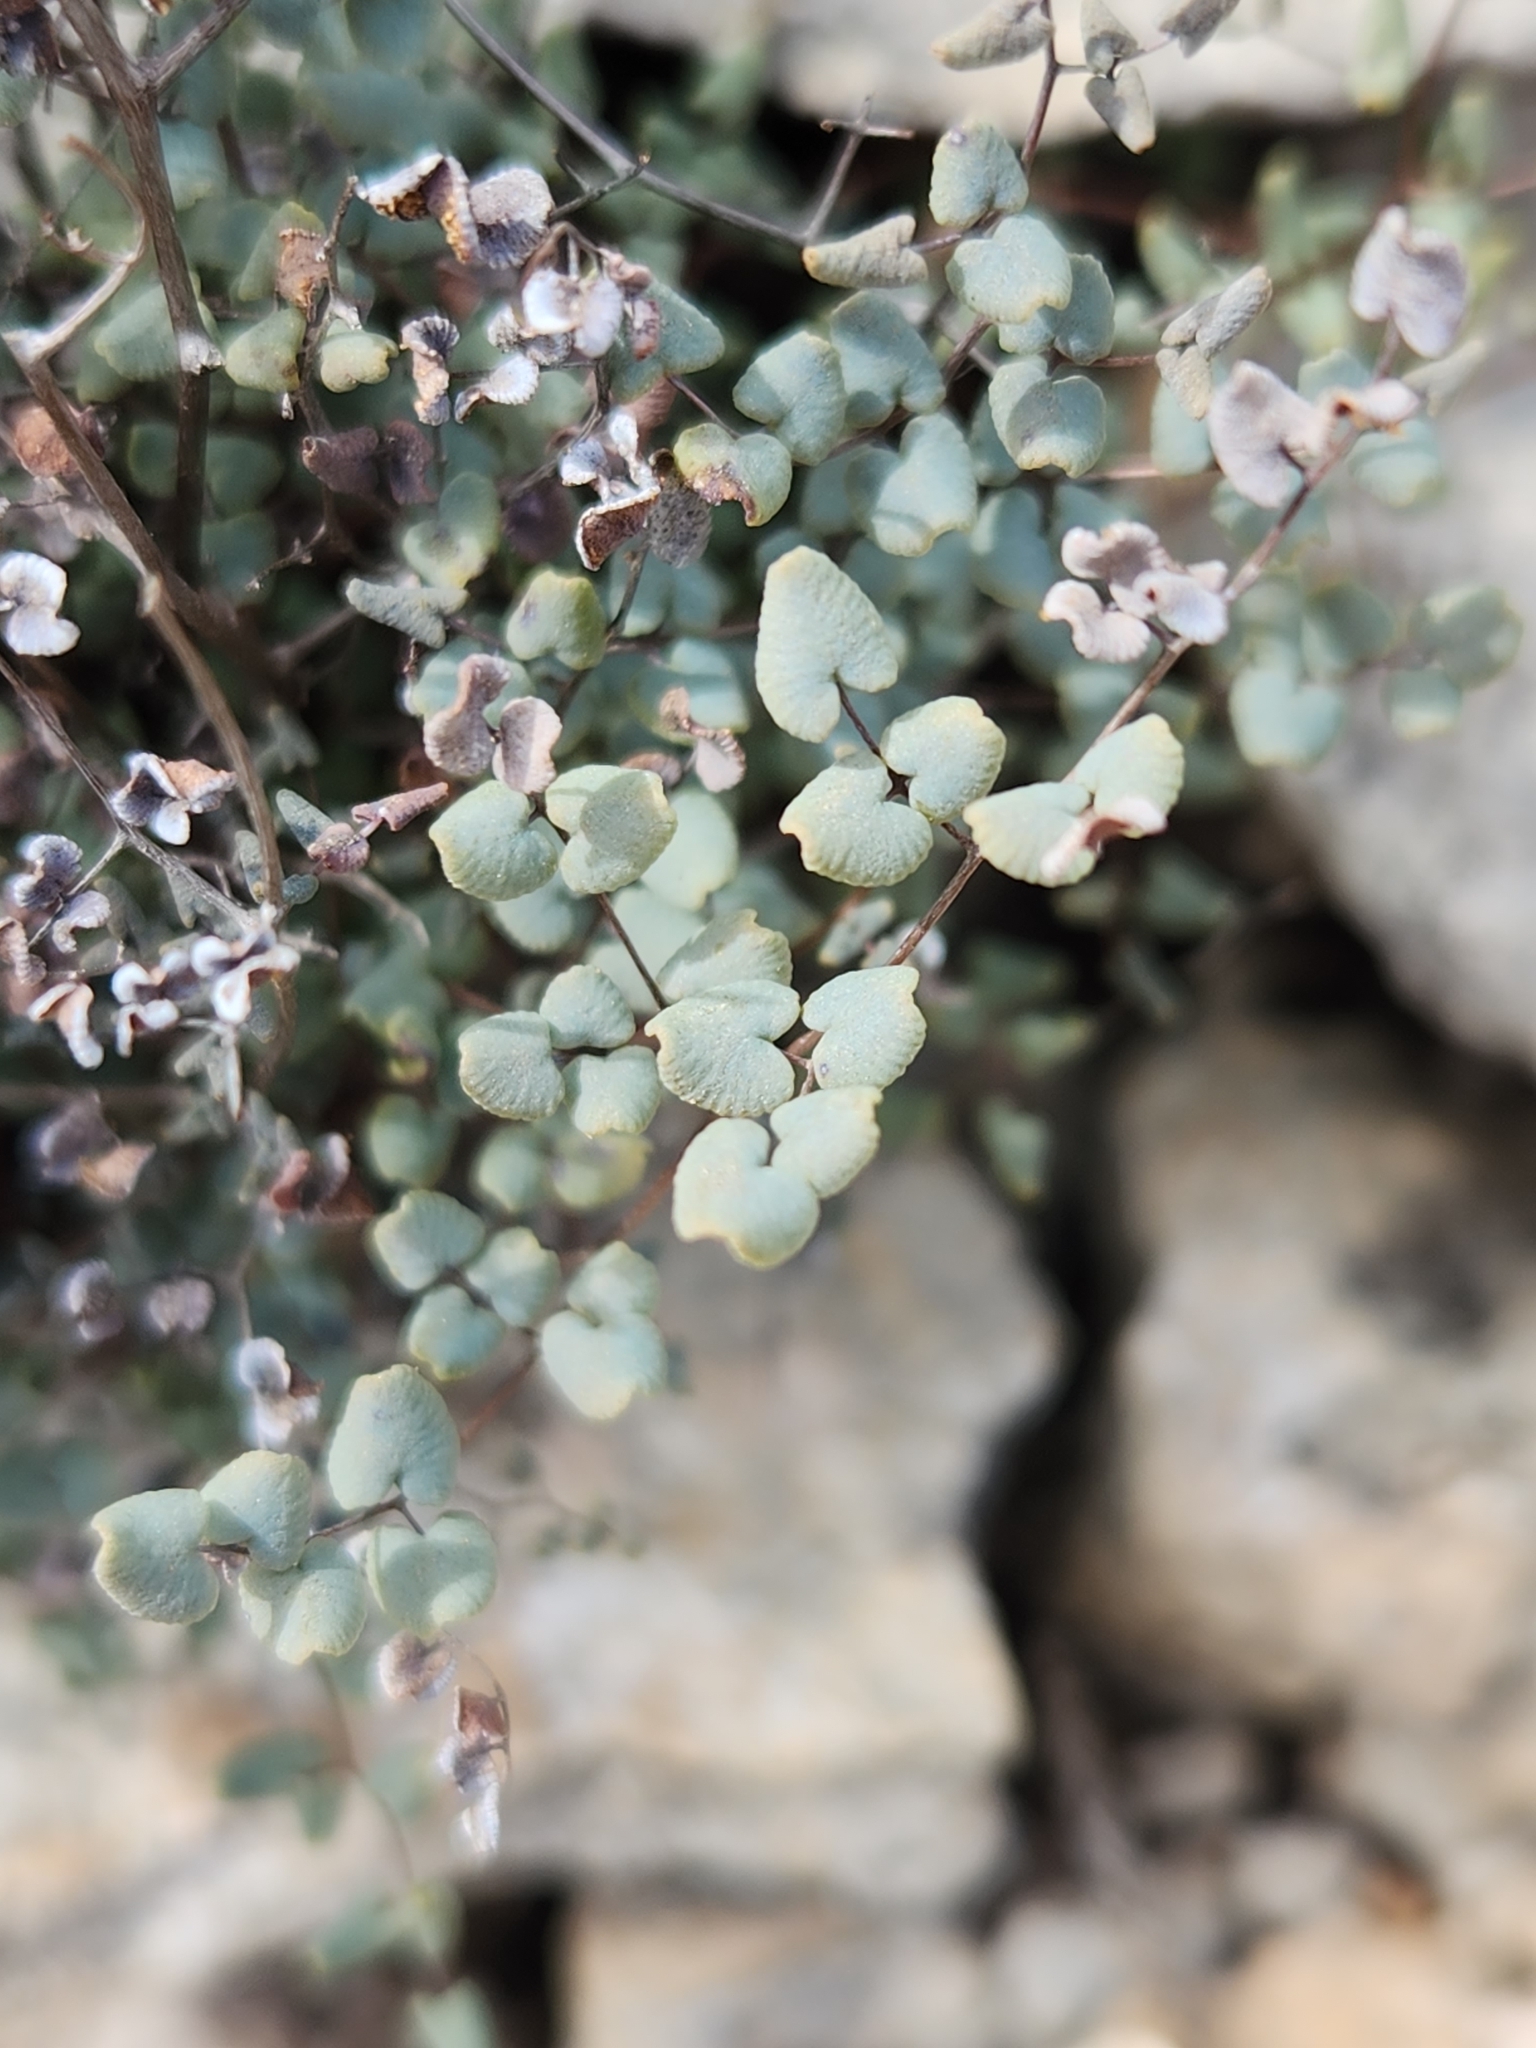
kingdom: Plantae
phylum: Tracheophyta
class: Polypodiopsida
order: Polypodiales
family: Pteridaceae
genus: Argyrochosma
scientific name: Argyrochosma microphylla
